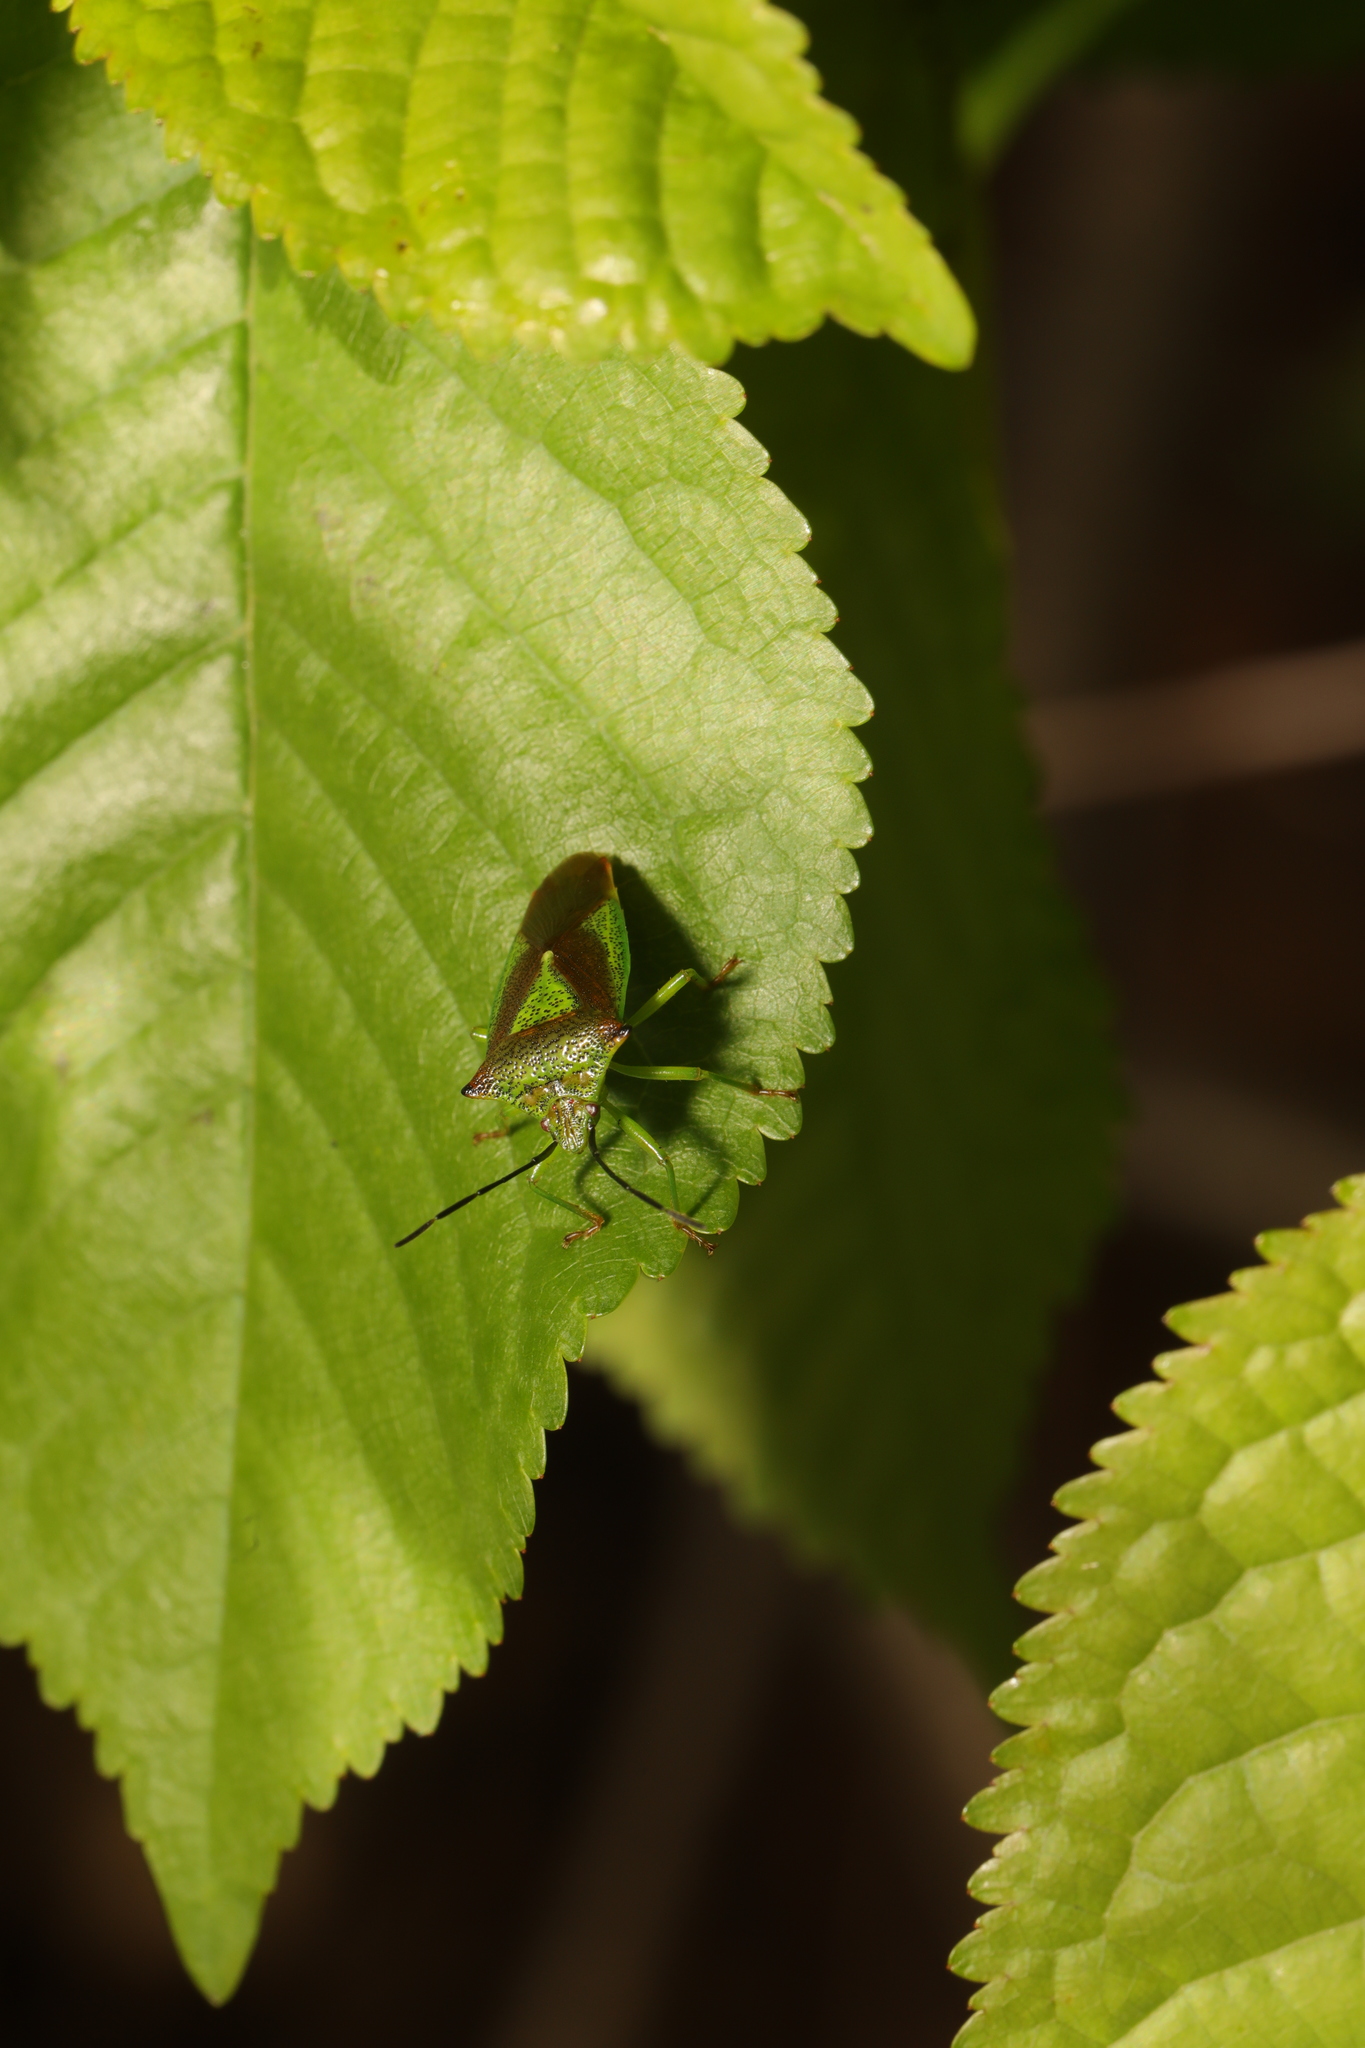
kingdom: Animalia
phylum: Arthropoda
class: Insecta
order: Hemiptera
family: Acanthosomatidae
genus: Acanthosoma
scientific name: Acanthosoma haemorrhoidale
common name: Hawthorn shieldbug
